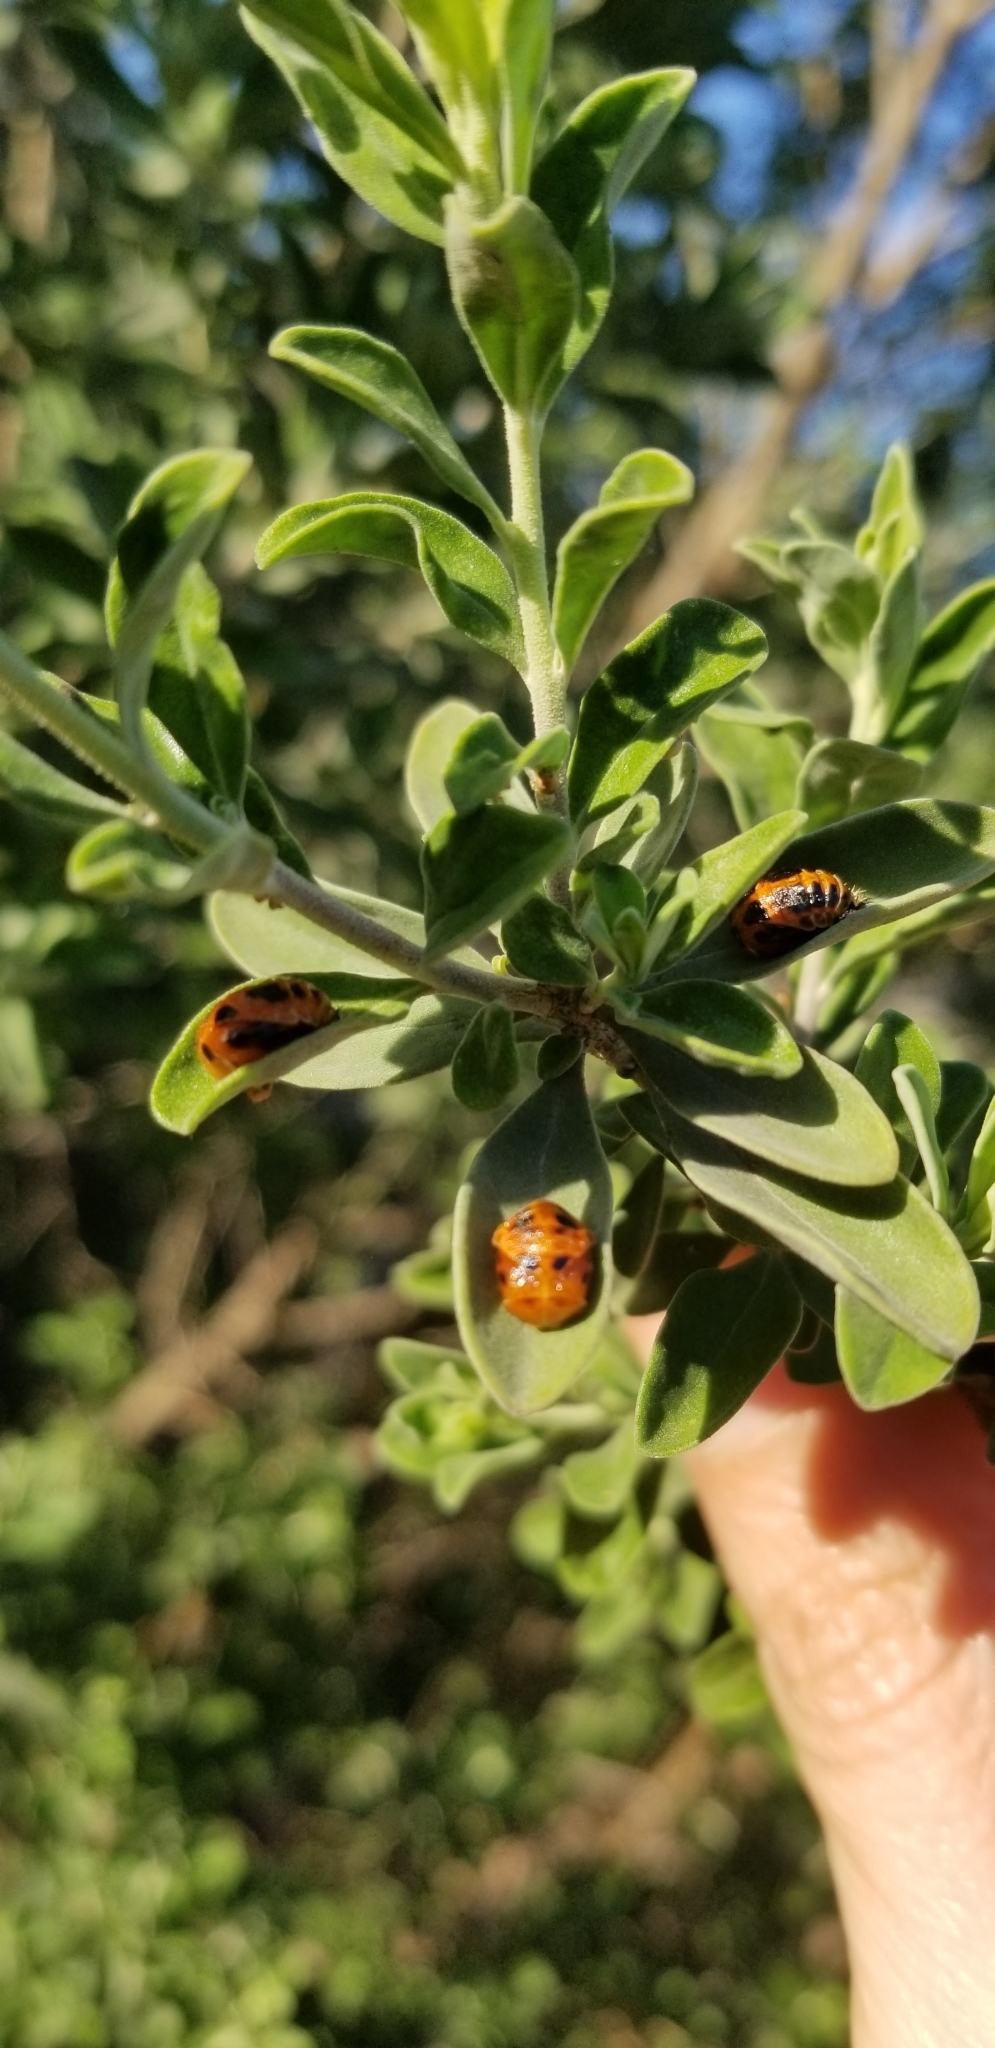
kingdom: Animalia
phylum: Arthropoda
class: Insecta
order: Coleoptera
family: Coccinellidae
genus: Harmonia
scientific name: Harmonia axyridis
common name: Harlequin ladybird
